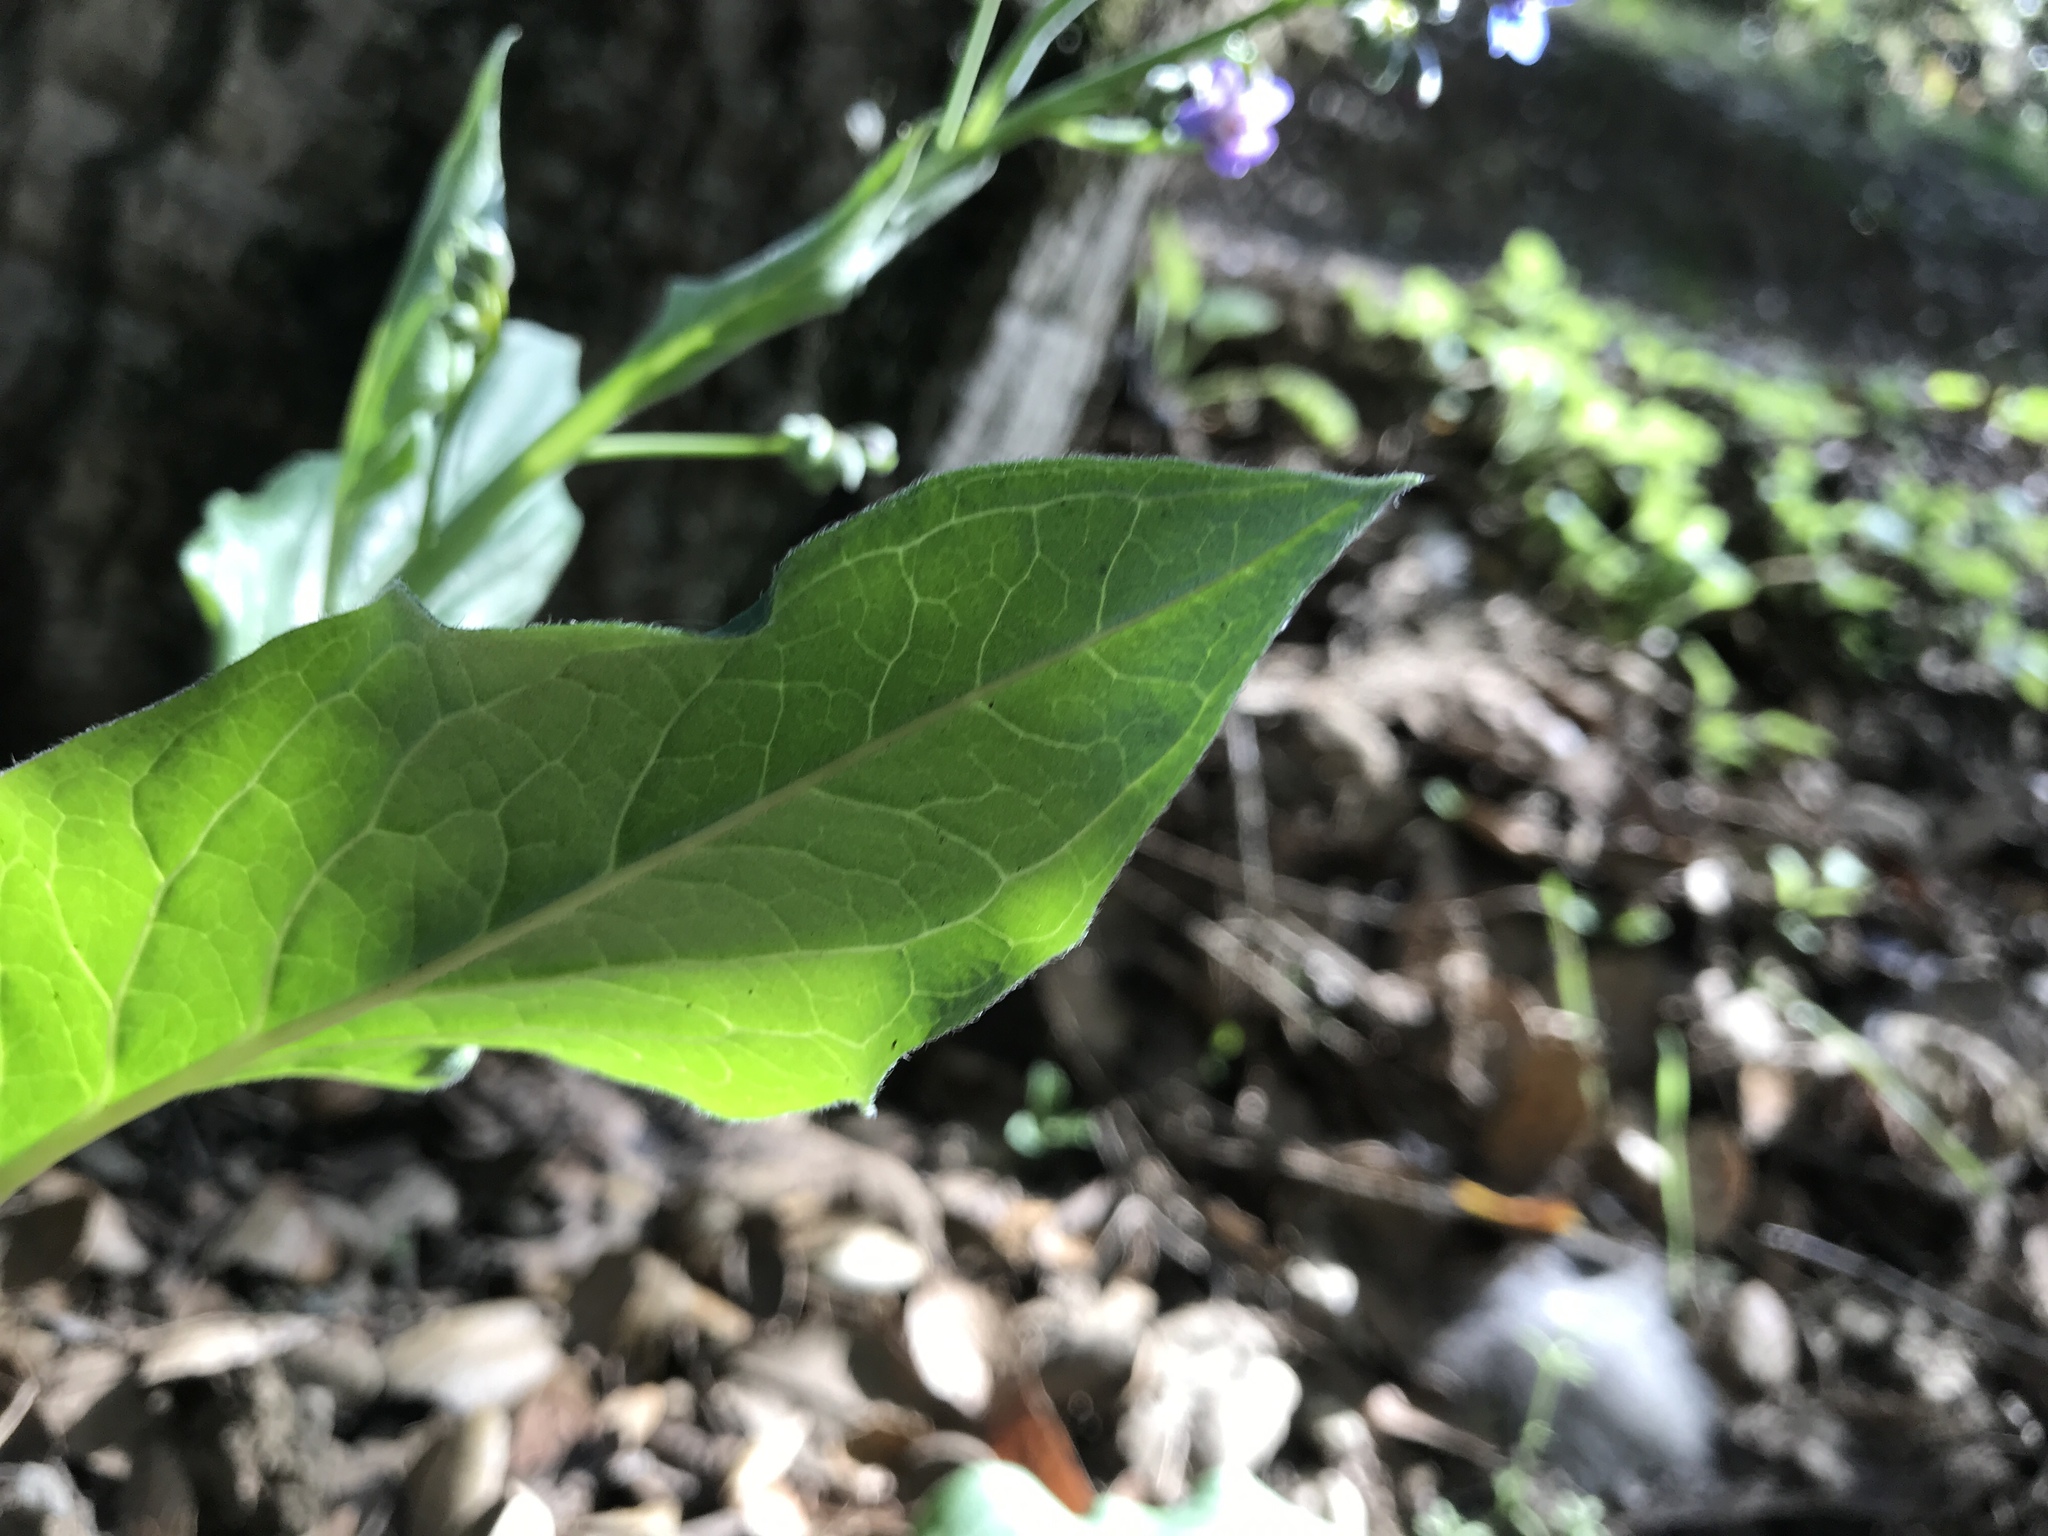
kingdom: Plantae
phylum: Tracheophyta
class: Magnoliopsida
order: Boraginales
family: Boraginaceae
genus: Adelinia
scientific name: Adelinia grande
